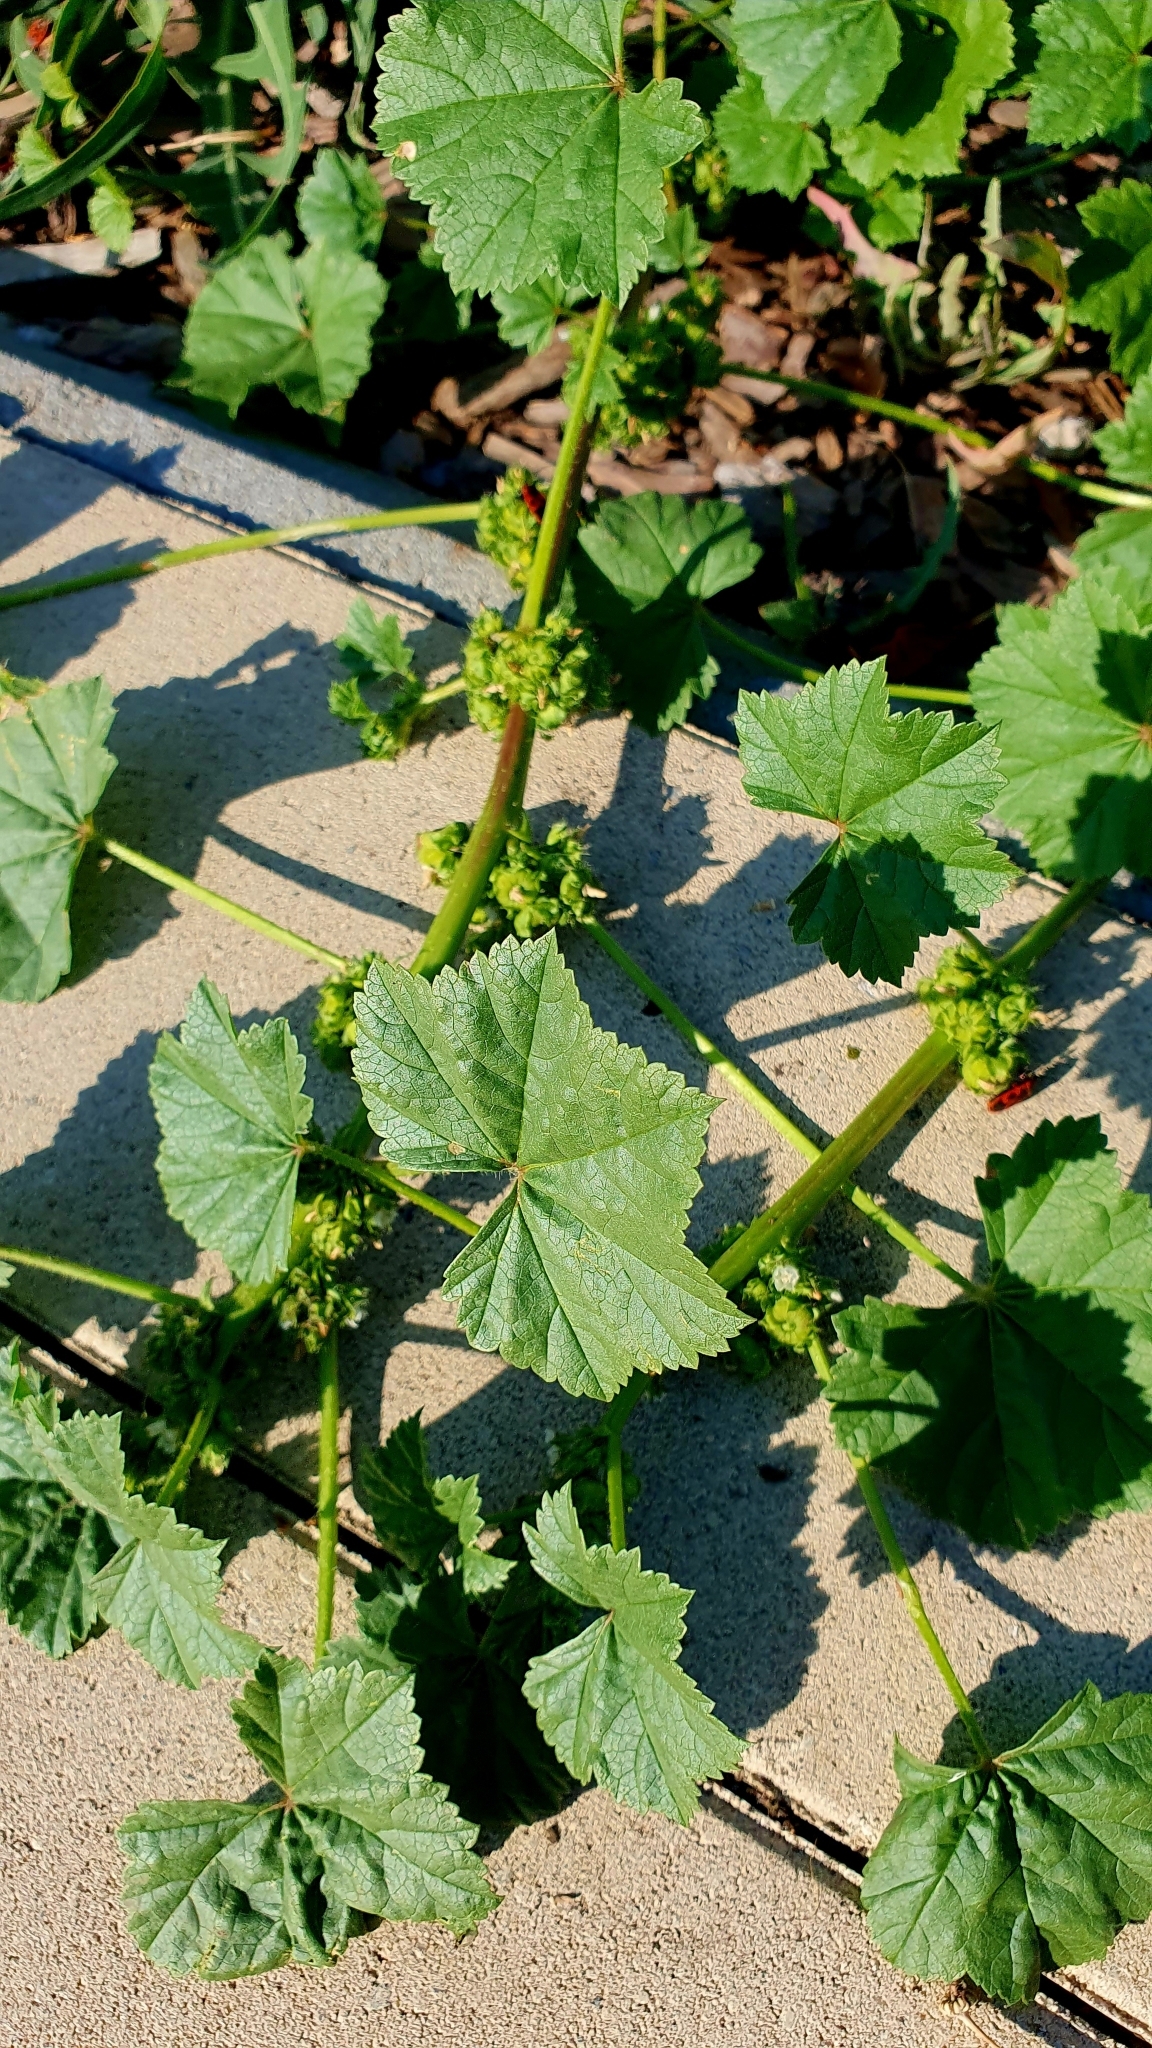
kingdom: Plantae
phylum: Tracheophyta
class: Magnoliopsida
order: Malvales
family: Malvaceae
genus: Malva
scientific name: Malva pusilla
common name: Small mallow
